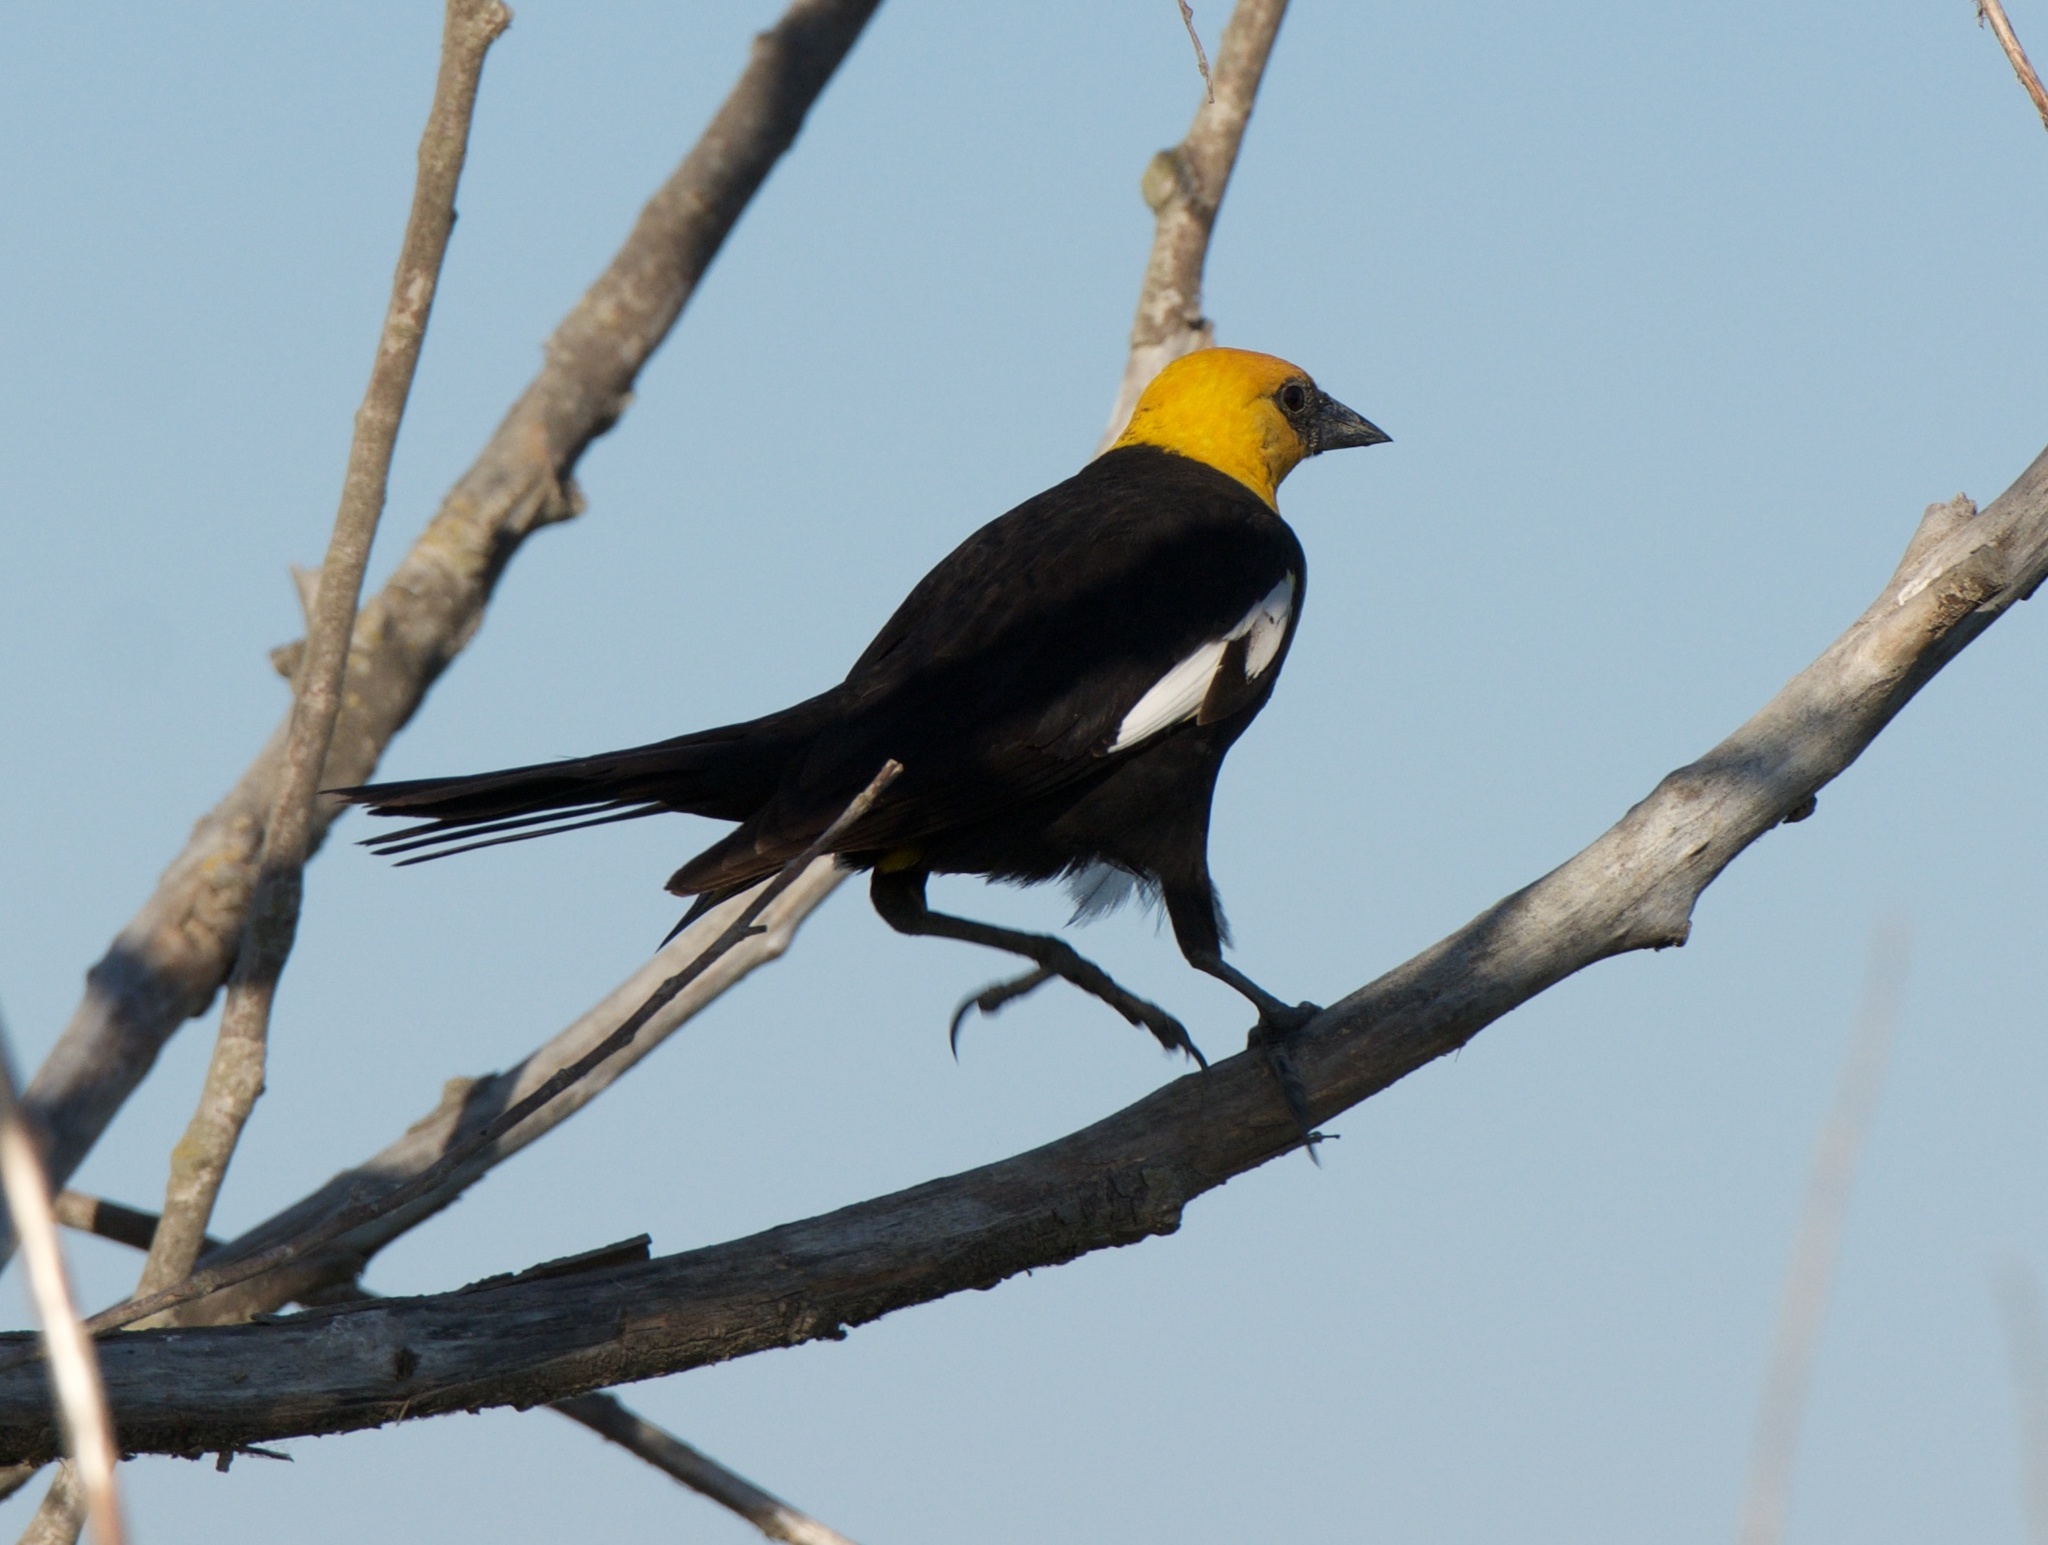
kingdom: Animalia
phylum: Chordata
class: Aves
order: Passeriformes
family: Icteridae
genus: Xanthocephalus
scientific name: Xanthocephalus xanthocephalus
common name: Yellow-headed blackbird
